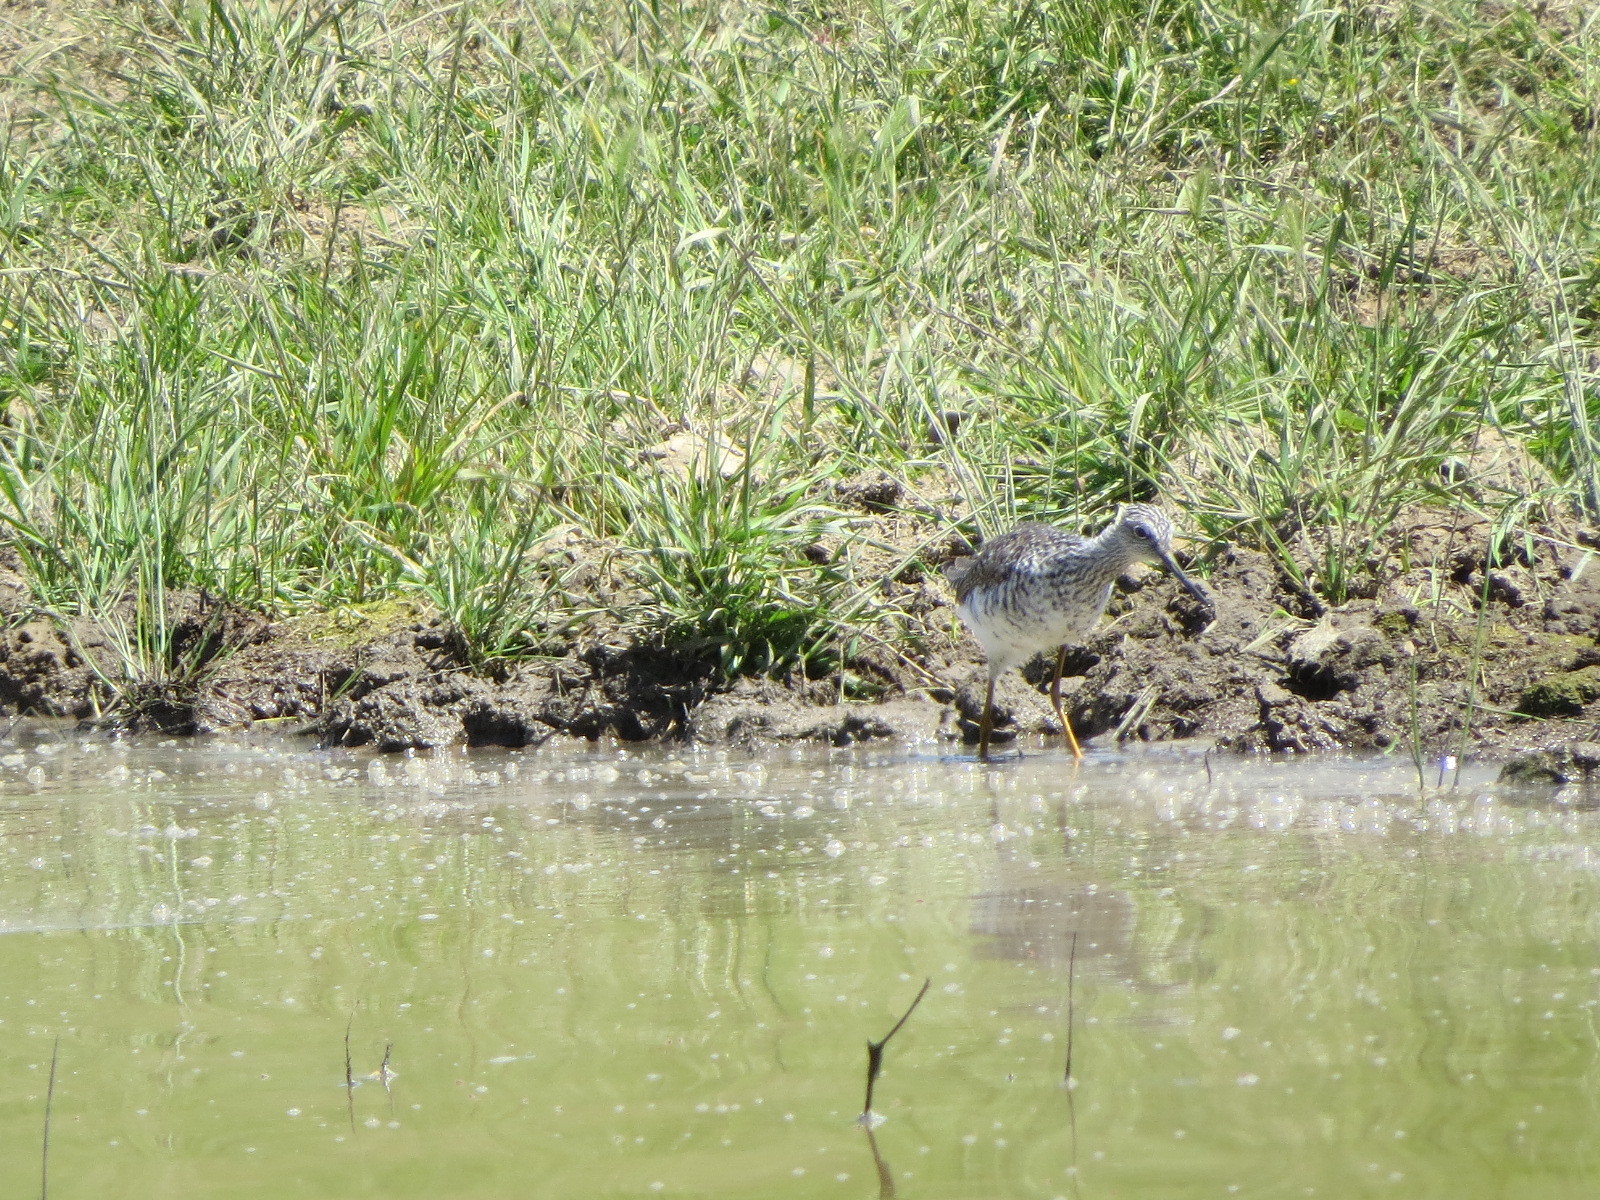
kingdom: Animalia
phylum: Chordata
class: Aves
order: Charadriiformes
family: Scolopacidae
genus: Tringa
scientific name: Tringa melanoleuca
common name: Greater yellowlegs
